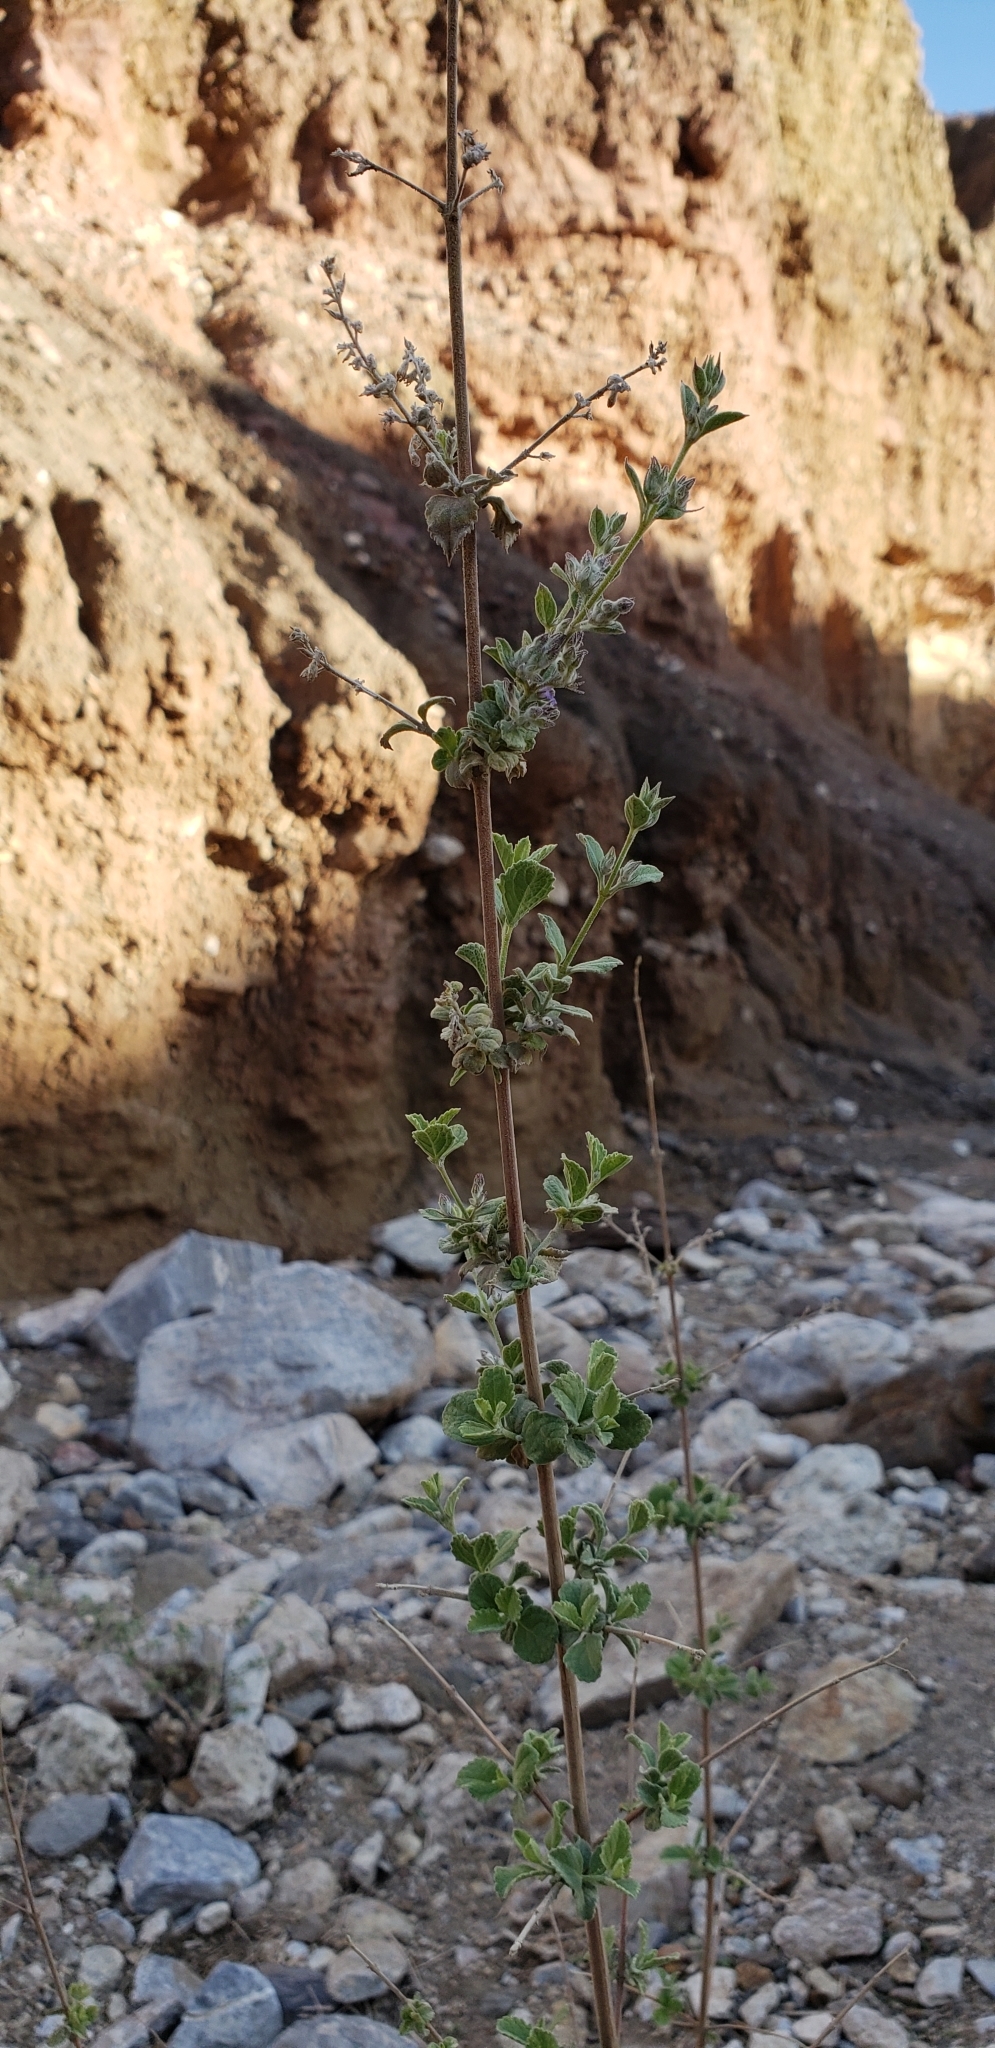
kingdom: Plantae
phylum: Tracheophyta
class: Magnoliopsida
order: Lamiales
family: Lamiaceae
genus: Condea
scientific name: Condea emoryi
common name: Chia
